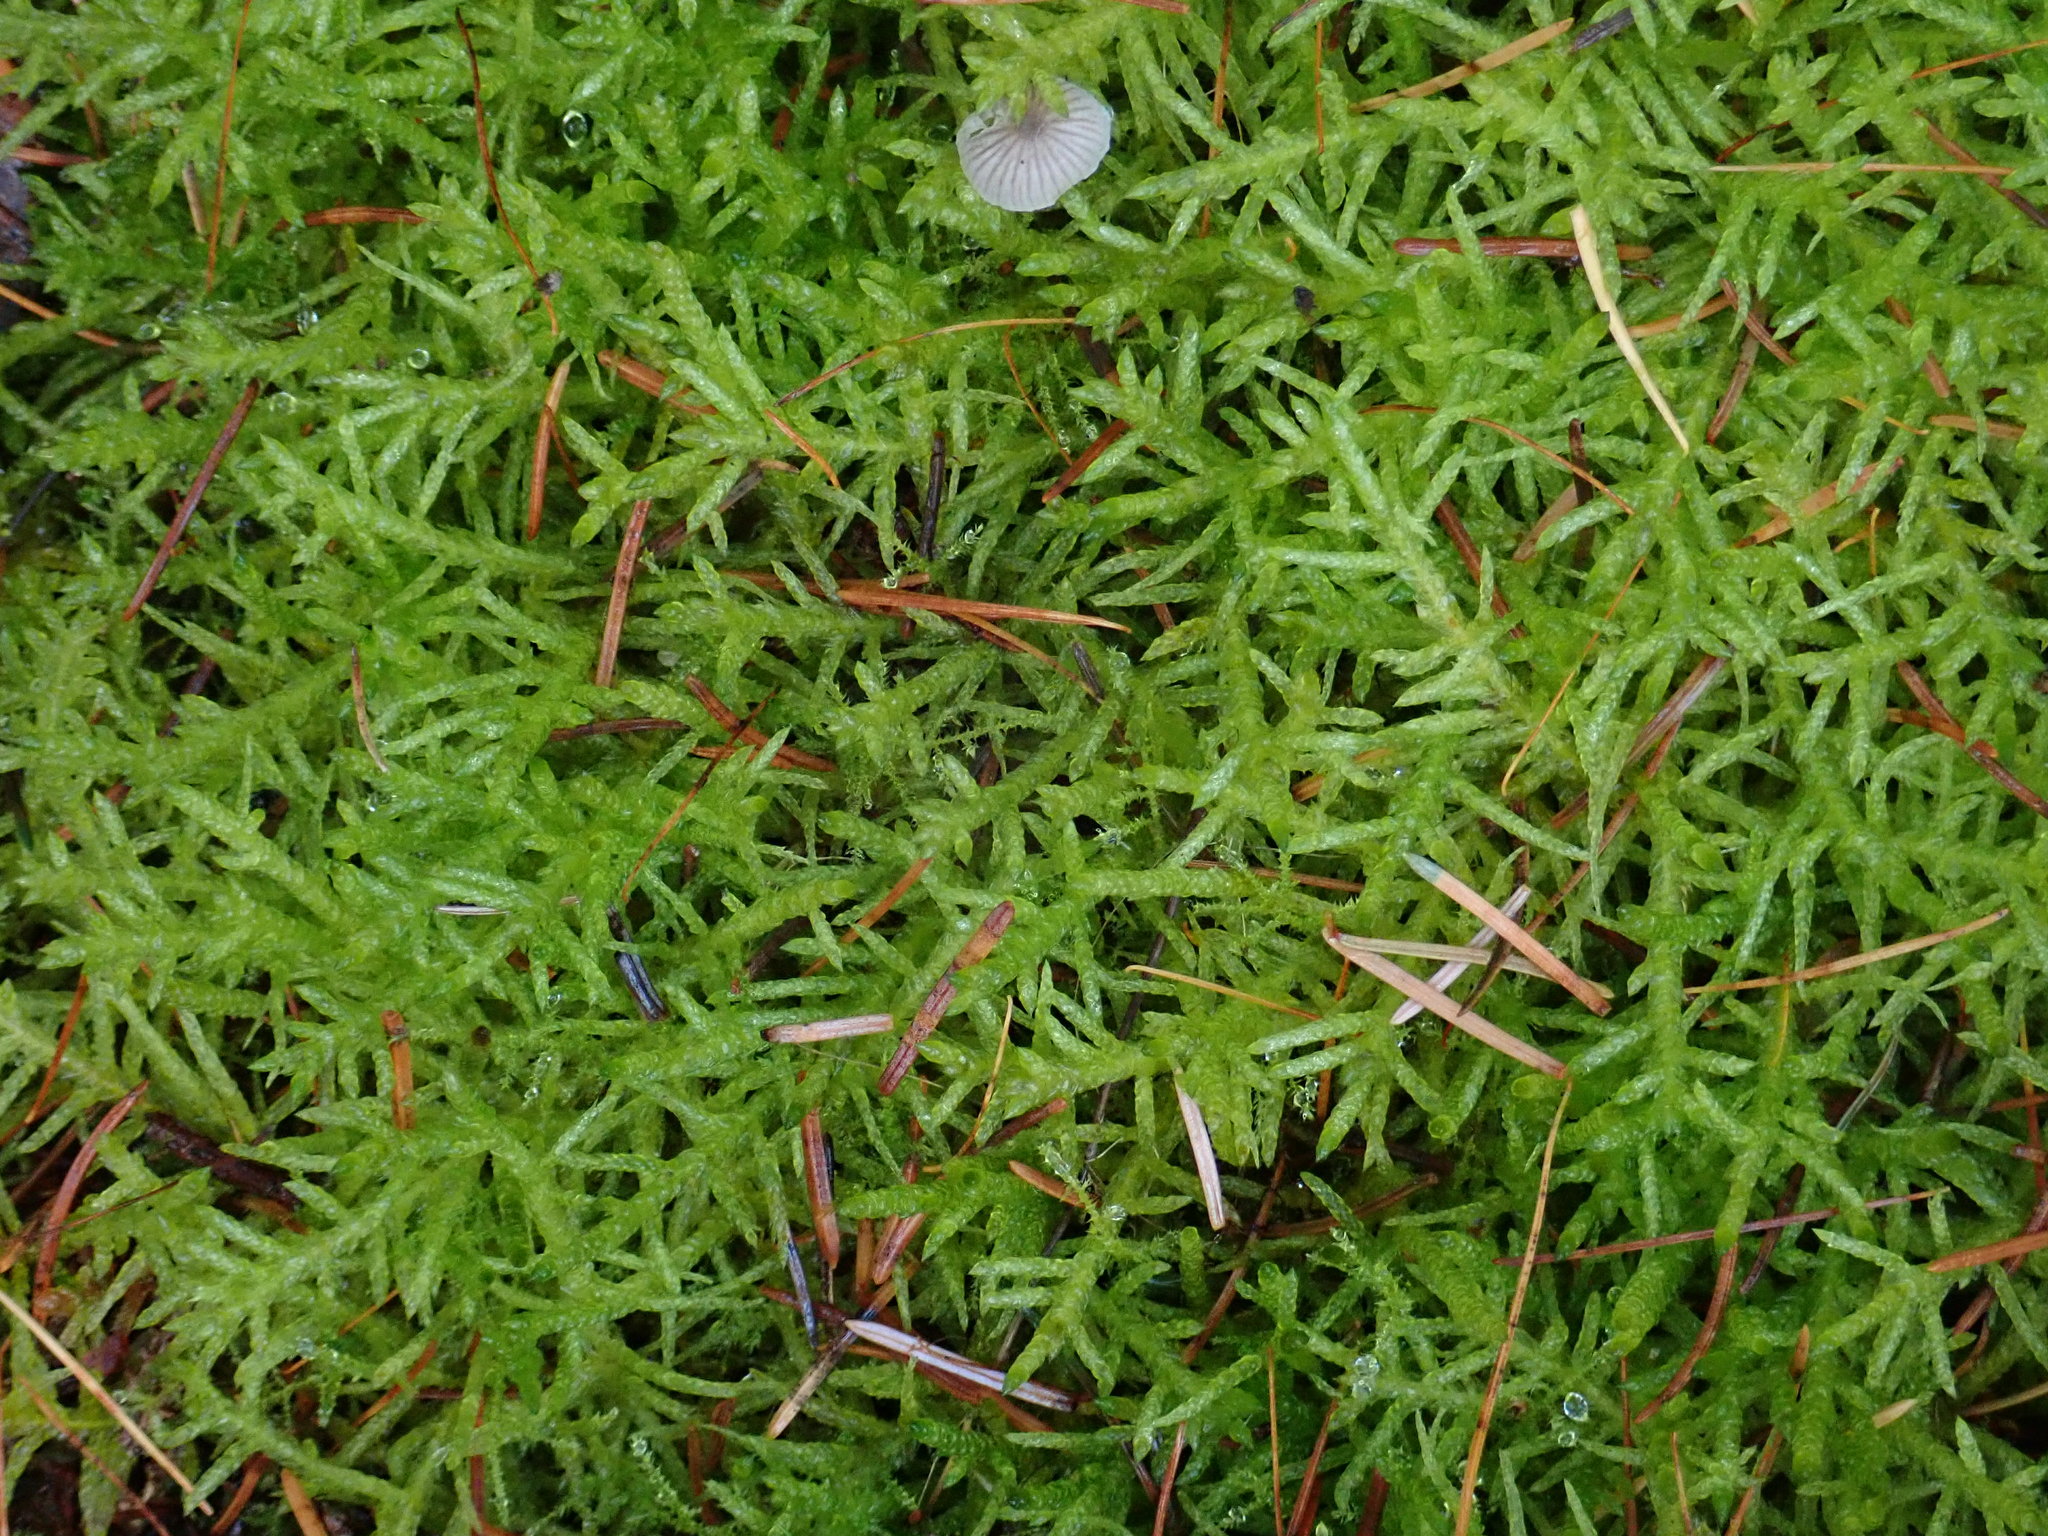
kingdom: Plantae
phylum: Bryophyta
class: Bryopsida
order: Hypnales
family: Brachytheciaceae
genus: Pseudoscleropodium
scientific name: Pseudoscleropodium purum
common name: Neat feather-moss
